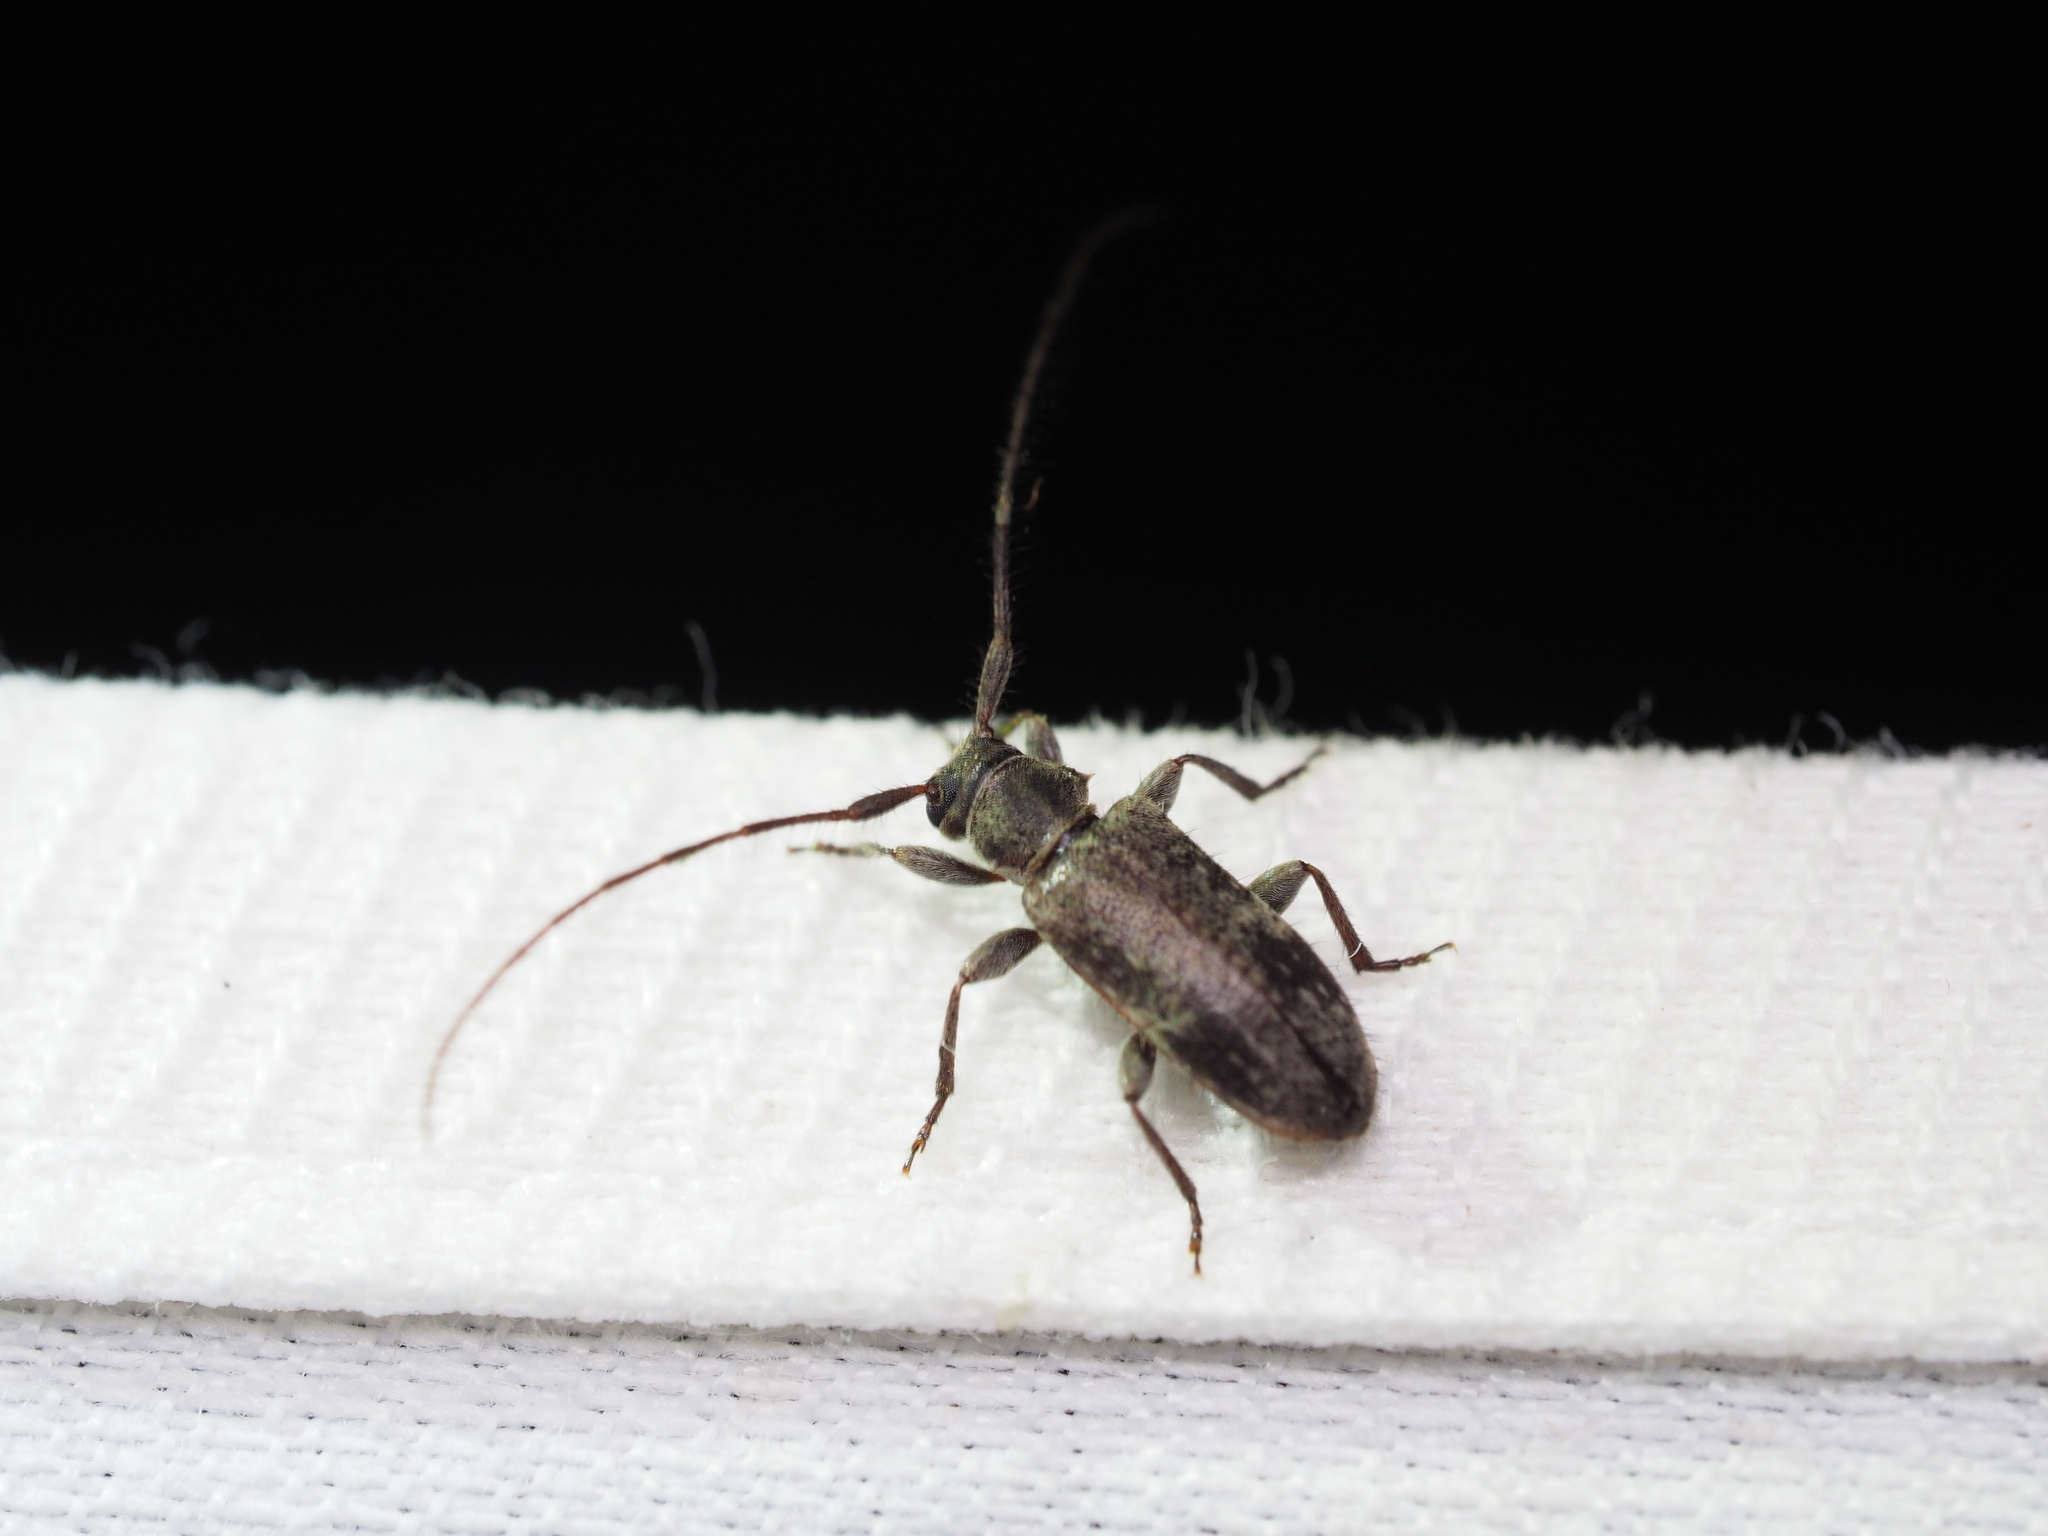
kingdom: Animalia
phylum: Arthropoda
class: Insecta
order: Coleoptera
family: Cerambycidae
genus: Exocentrus
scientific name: Exocentrus adspersus
